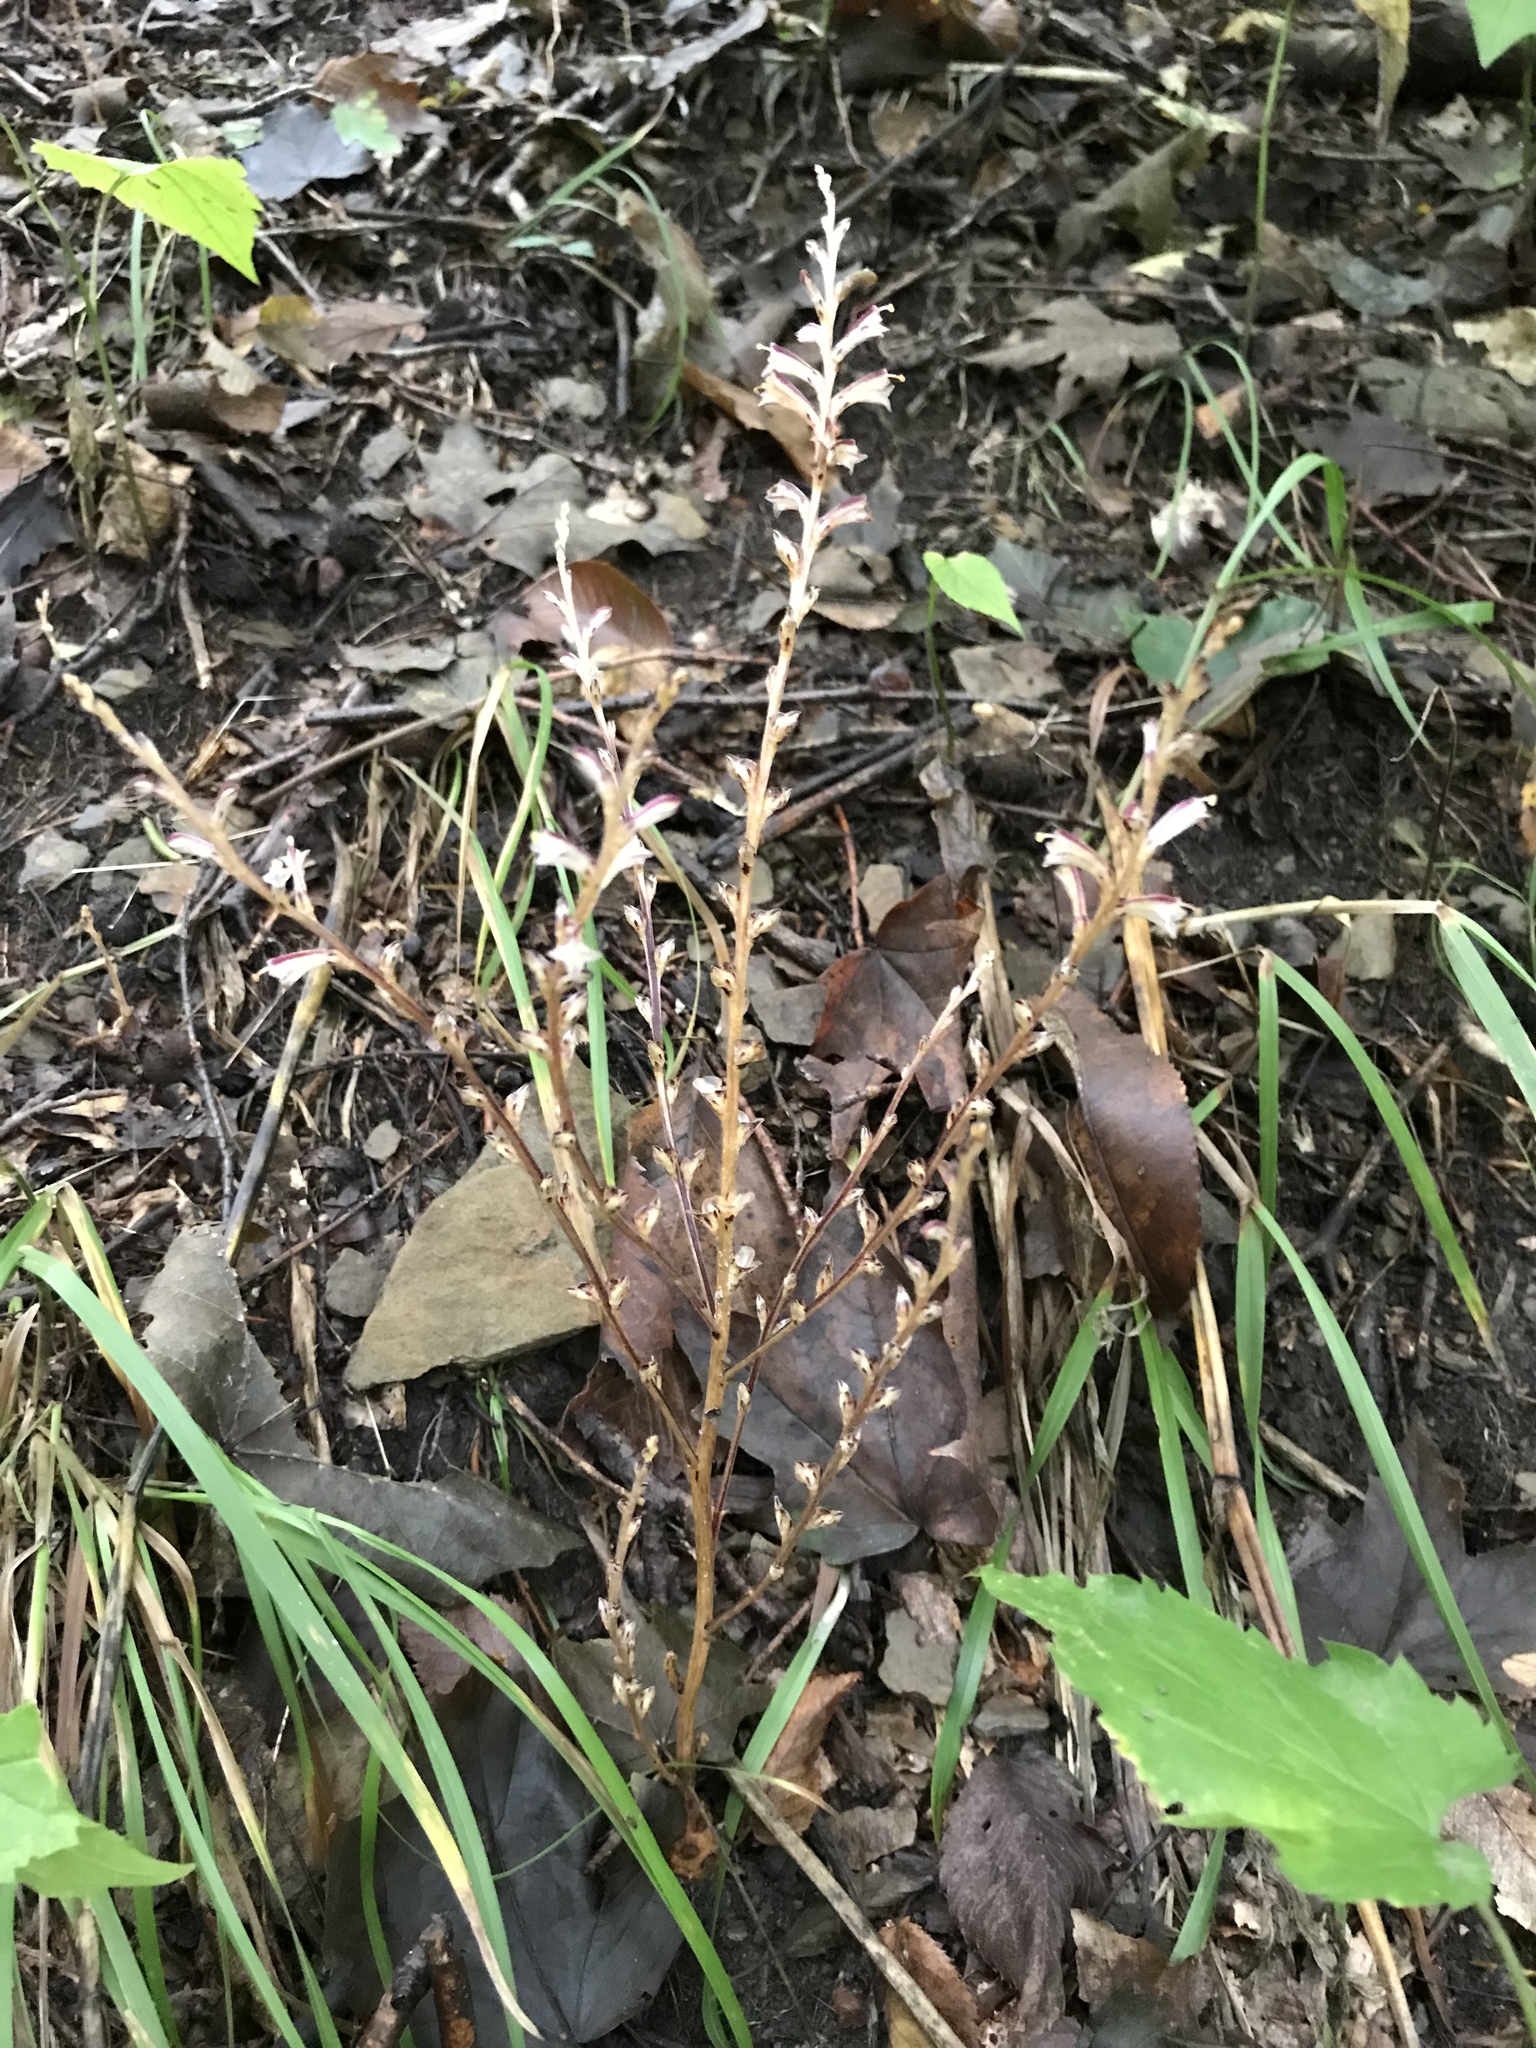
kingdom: Plantae
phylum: Tracheophyta
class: Magnoliopsida
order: Lamiales
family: Orobanchaceae
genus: Epifagus
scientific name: Epifagus virginiana
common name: Beechdrops
